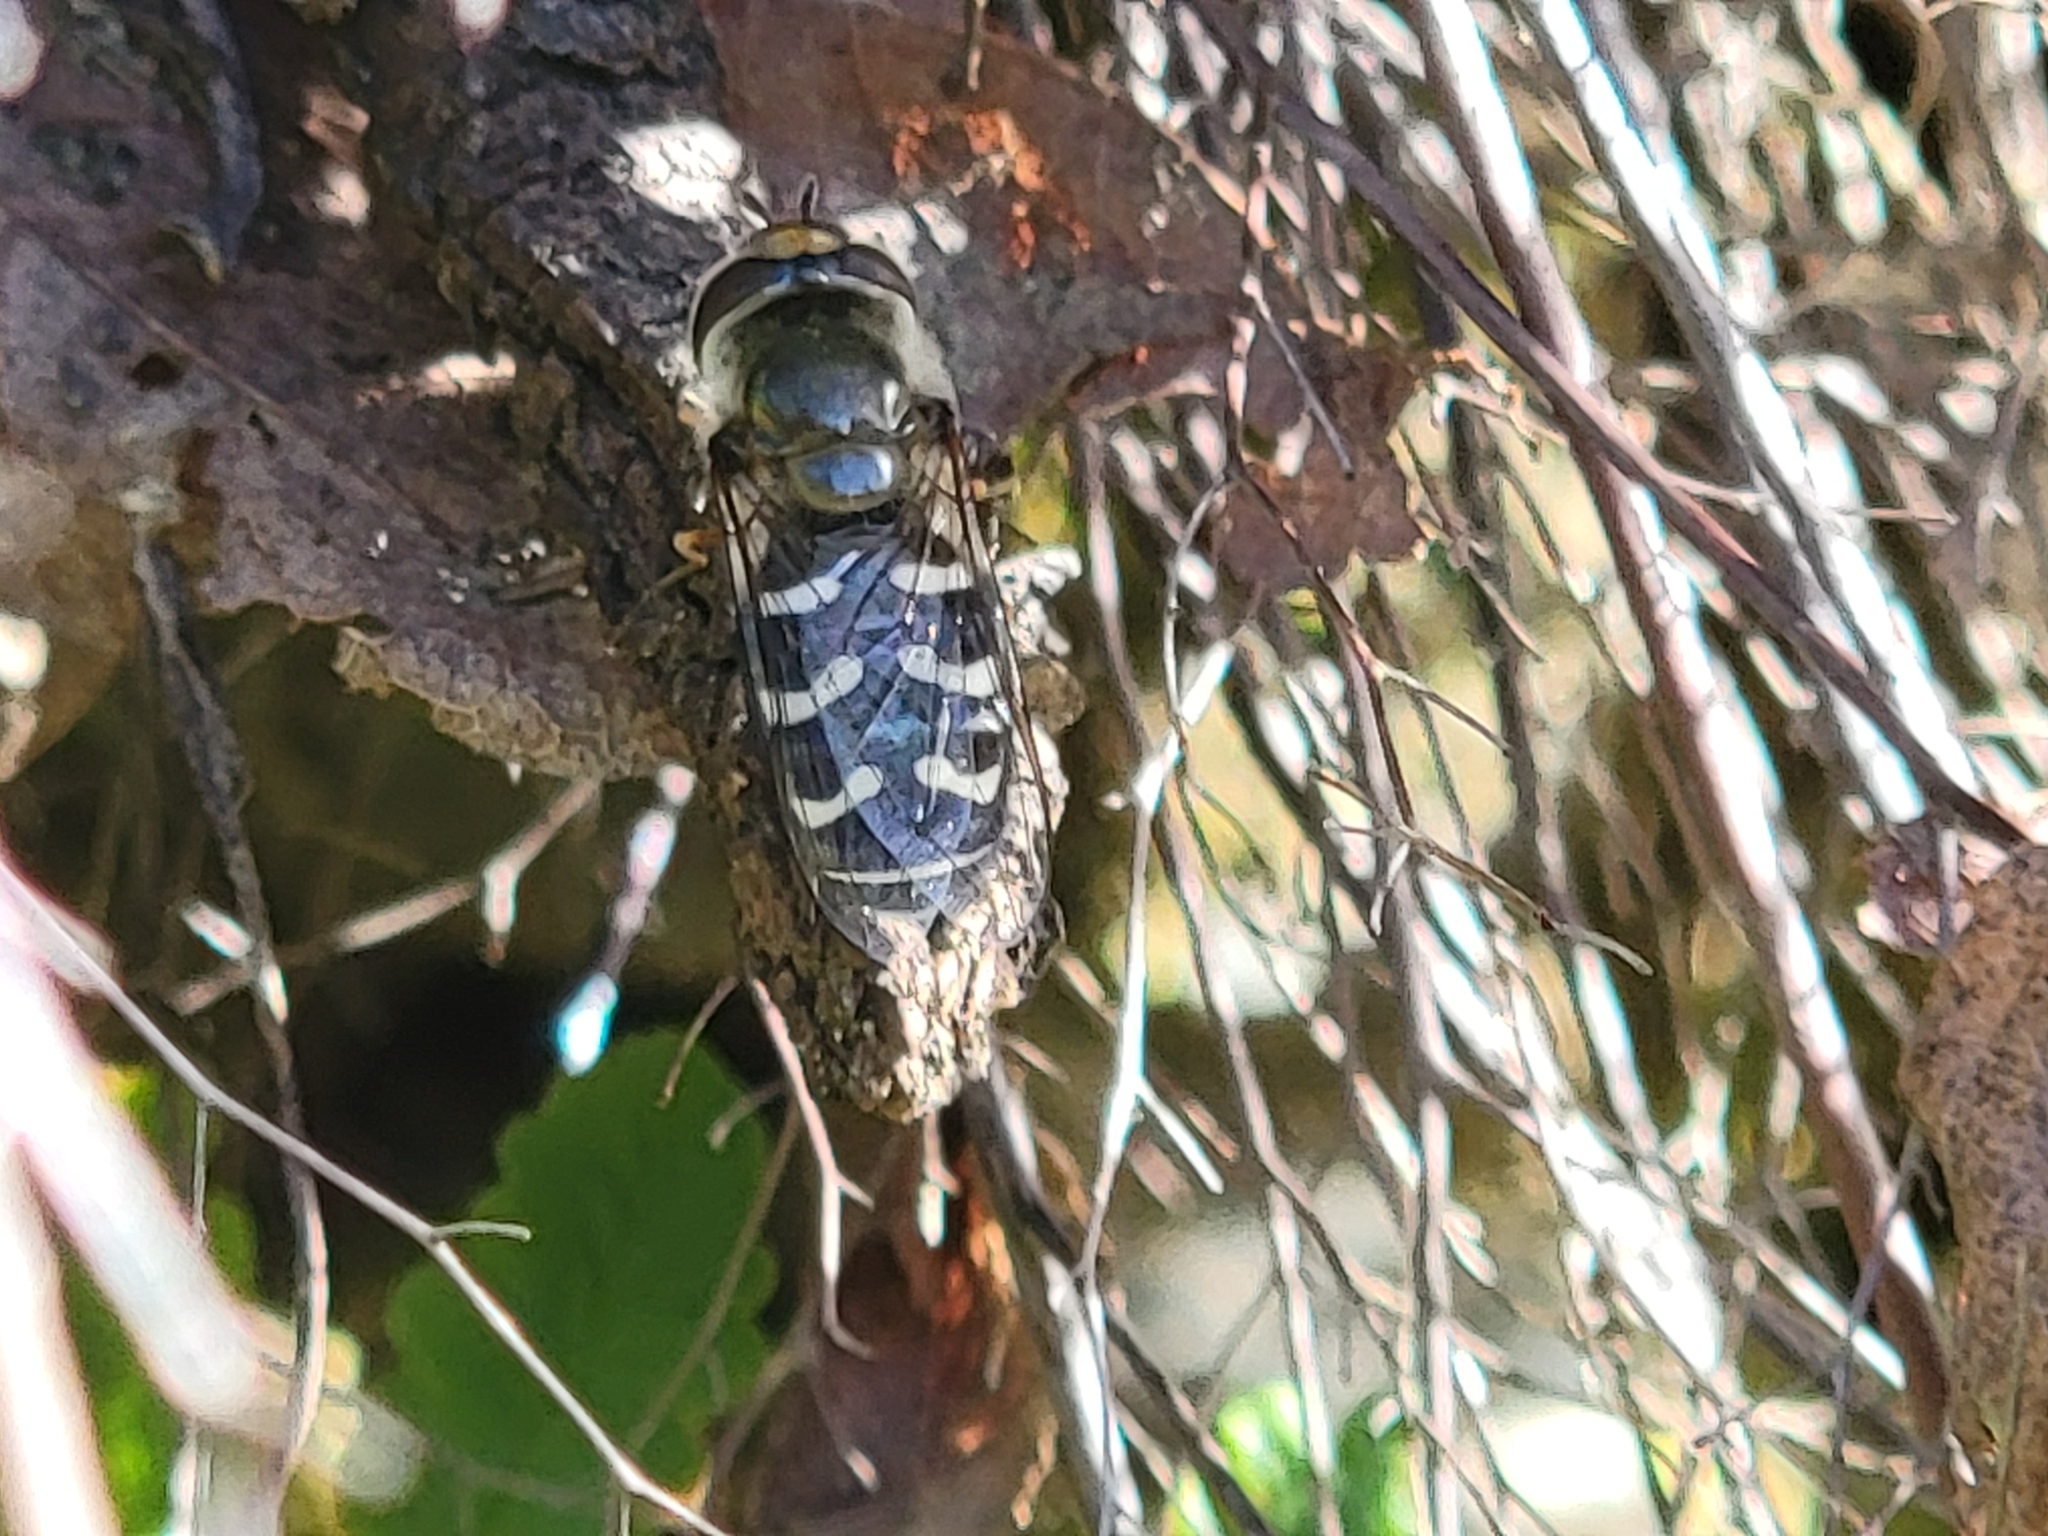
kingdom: Animalia
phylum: Arthropoda
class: Insecta
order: Diptera
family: Syrphidae
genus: Scaeva
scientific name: Scaeva affinis
